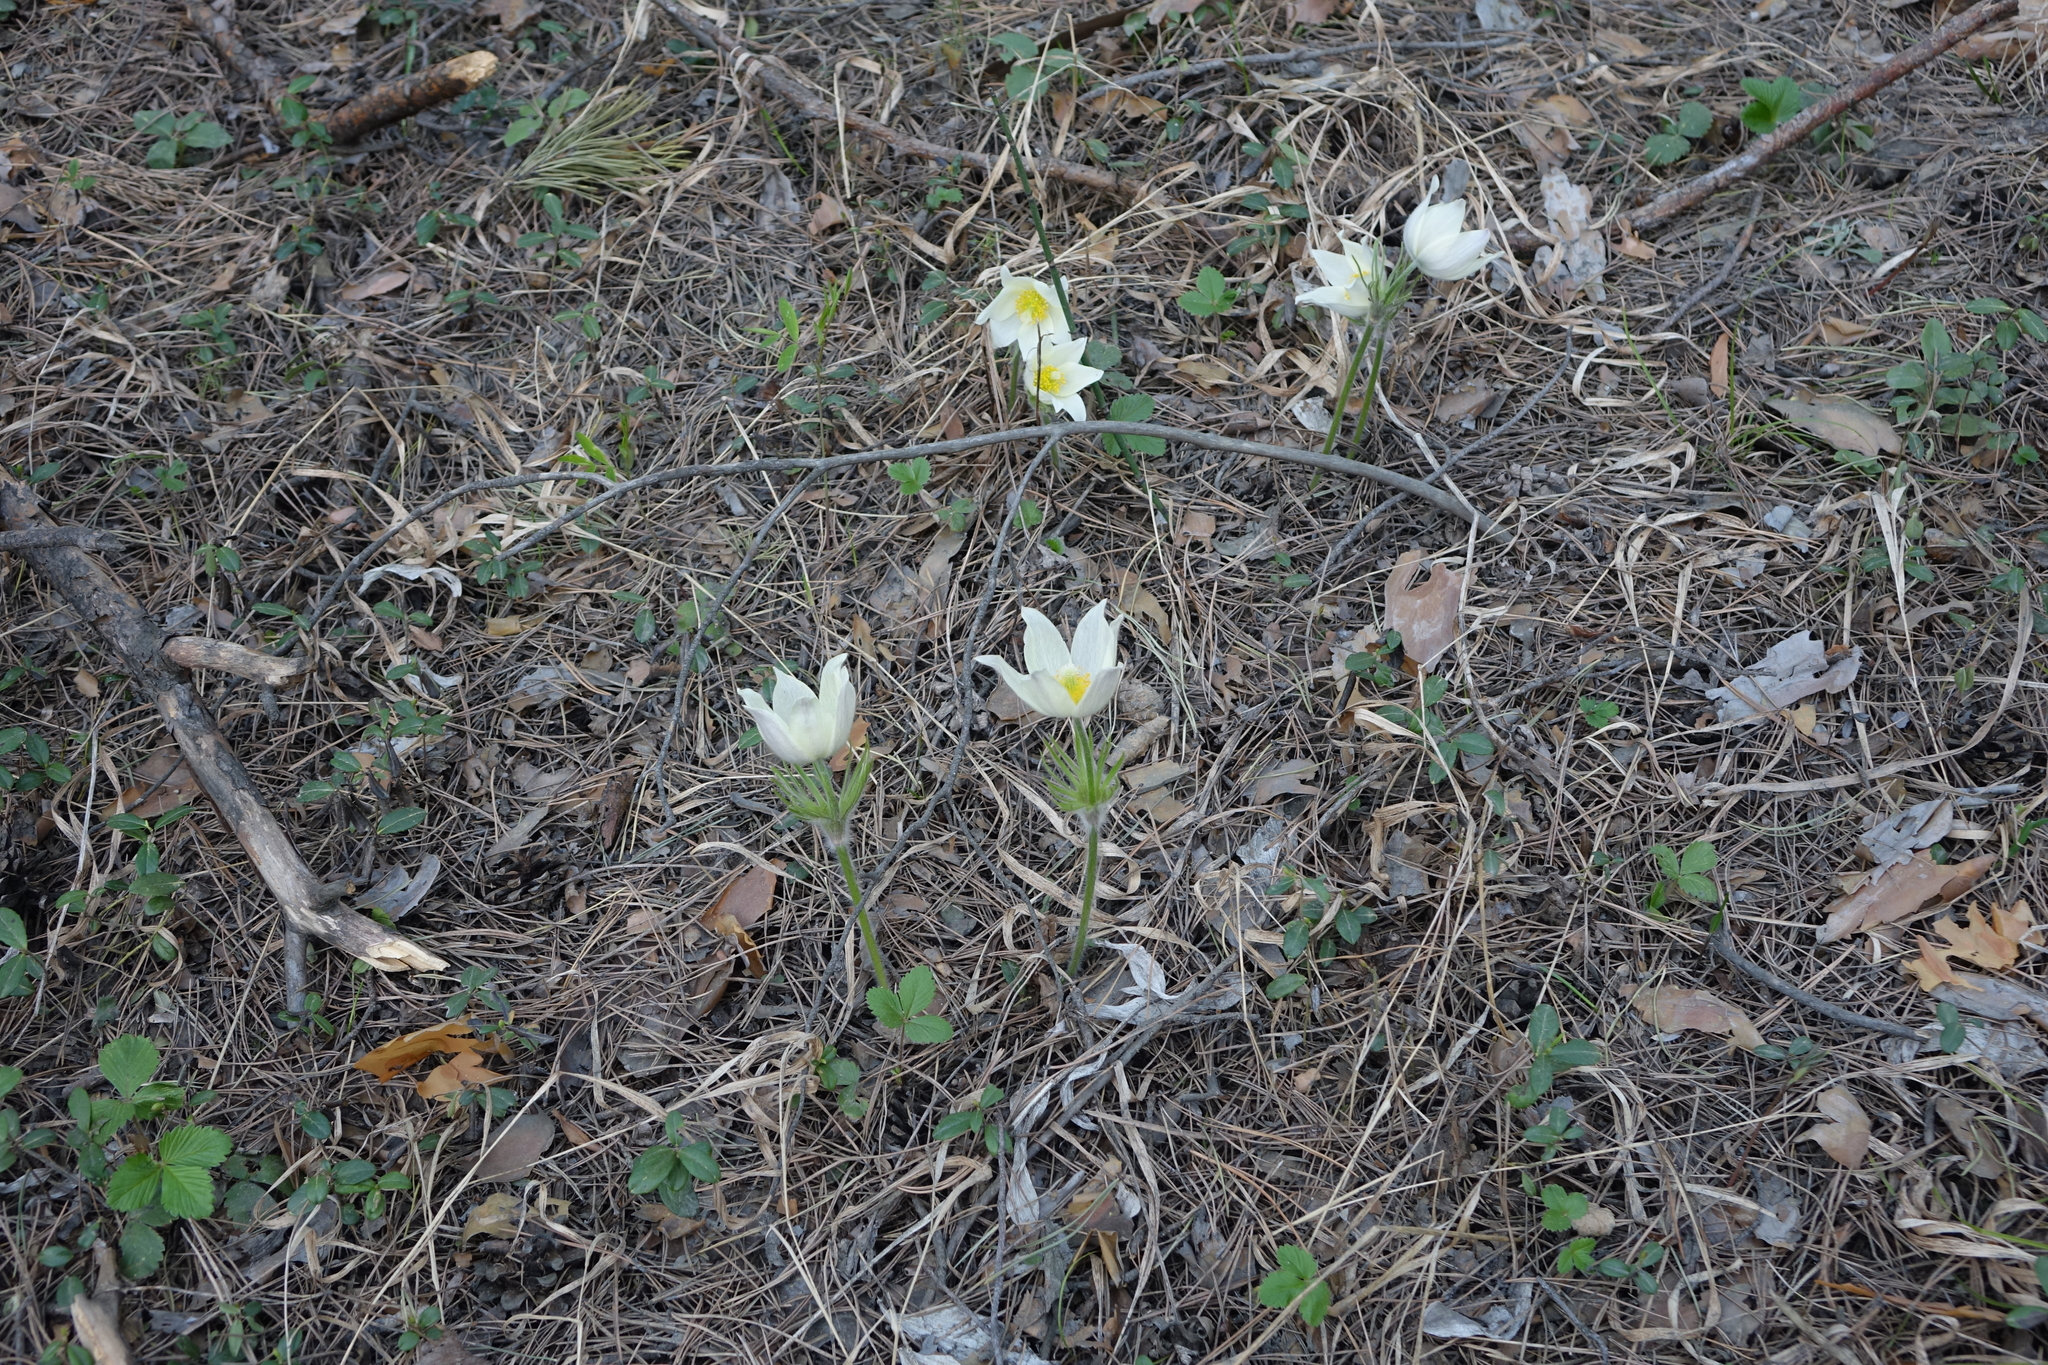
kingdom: Plantae
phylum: Tracheophyta
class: Magnoliopsida
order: Ranunculales
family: Ranunculaceae
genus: Pulsatilla
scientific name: Pulsatilla patens
